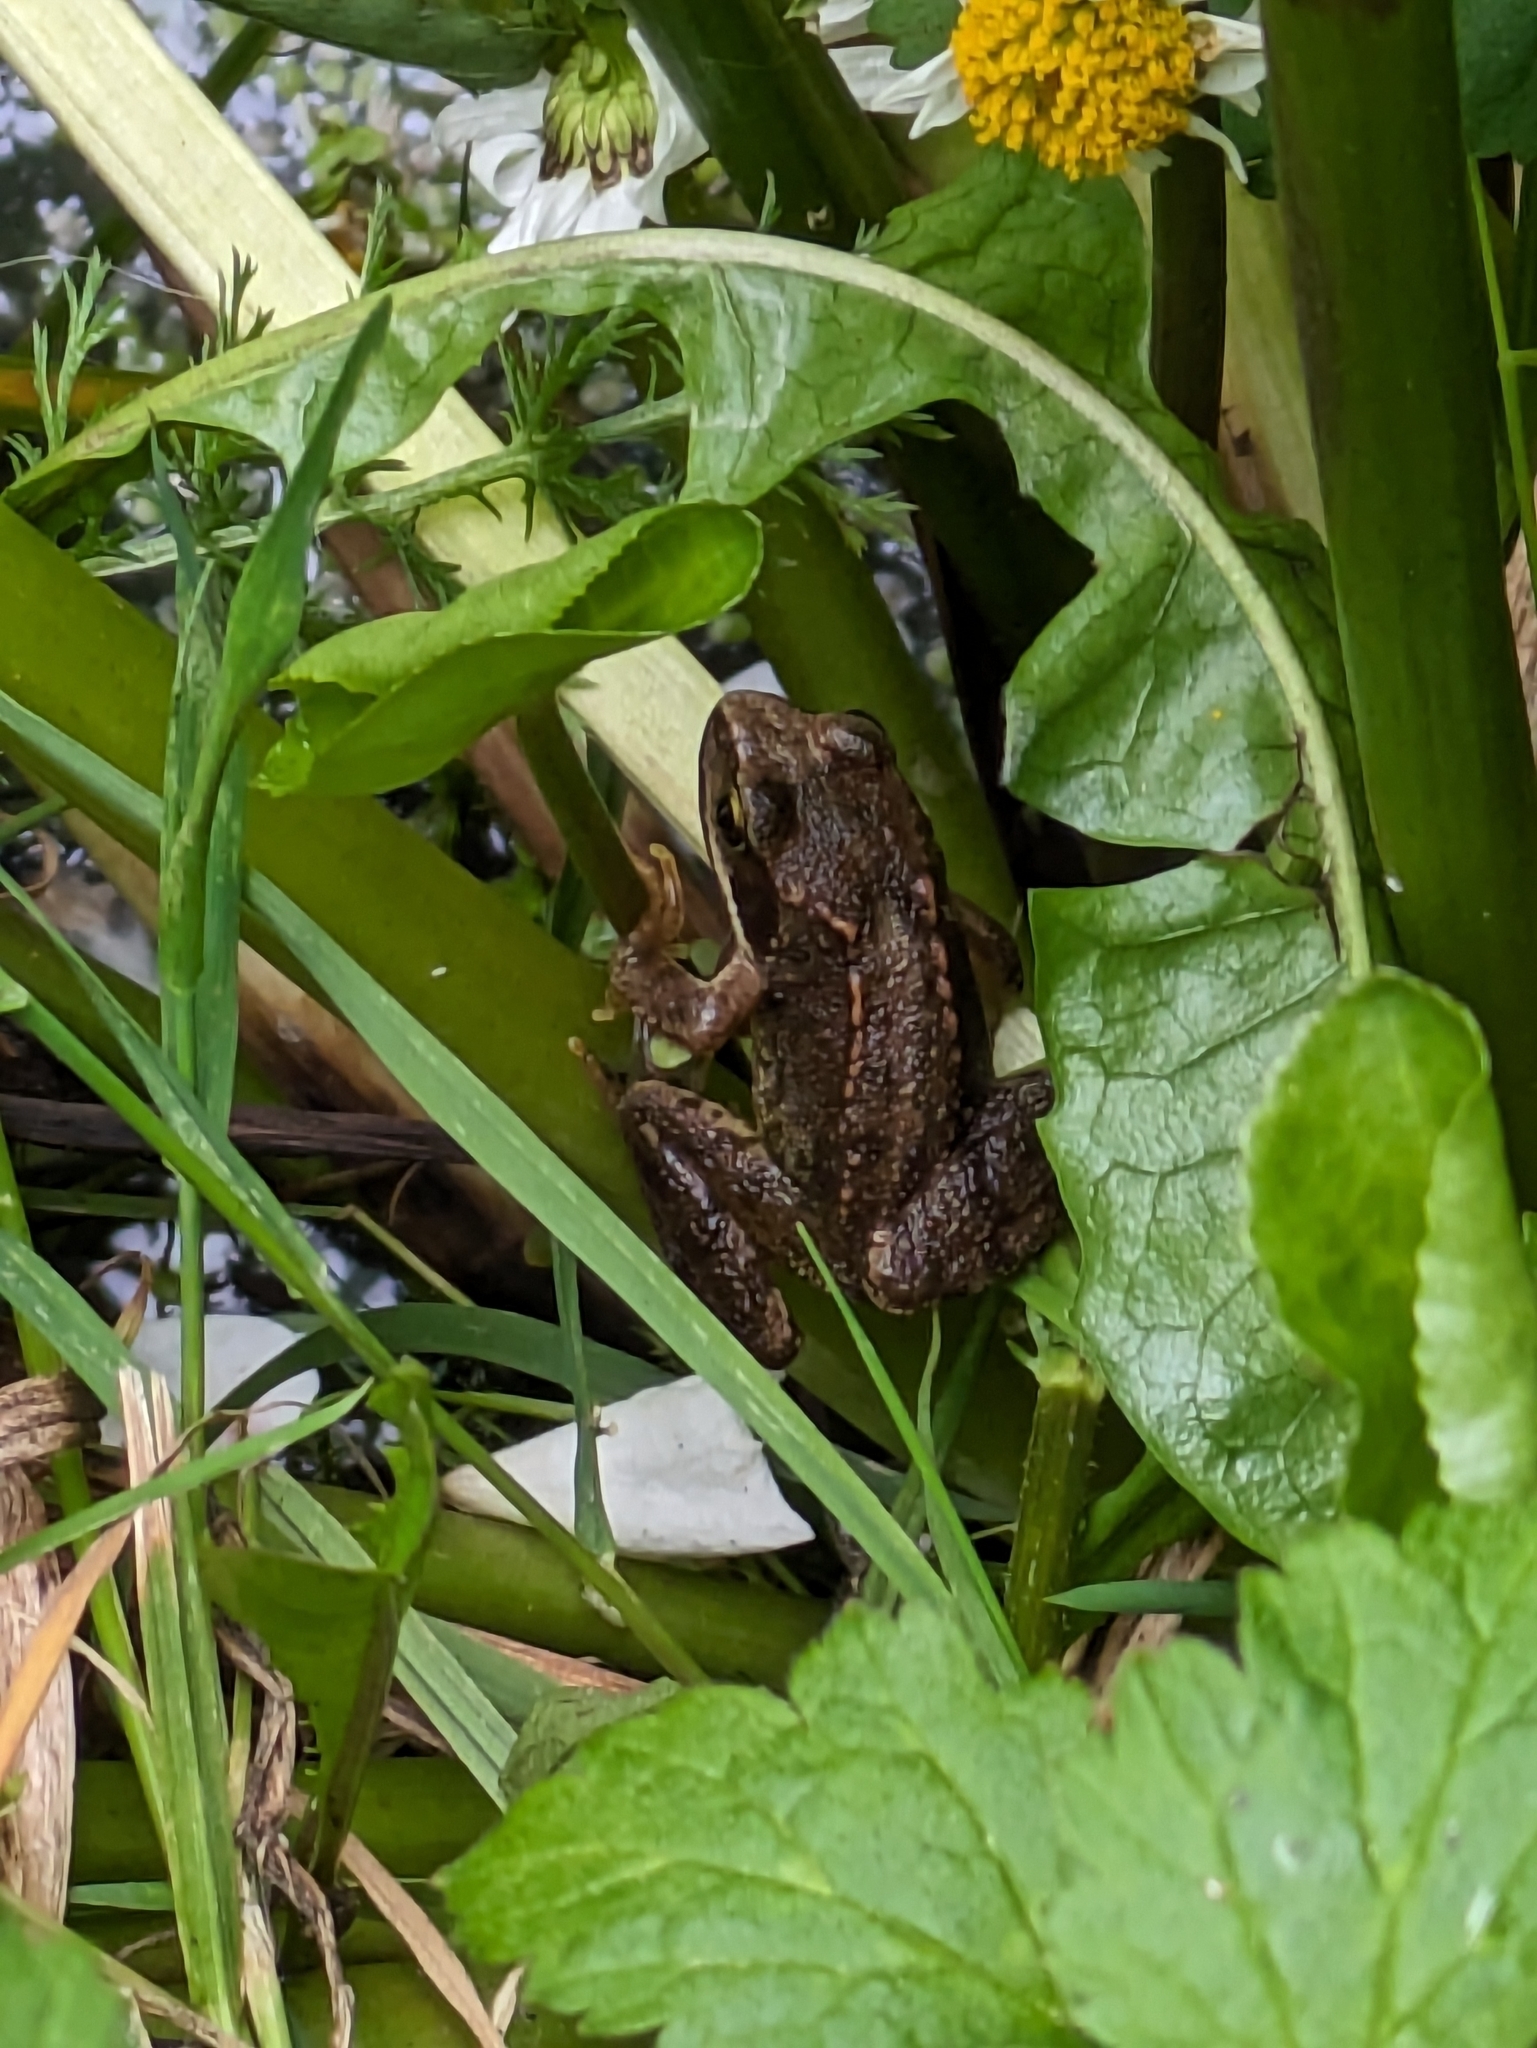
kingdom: Animalia
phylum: Chordata
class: Amphibia
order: Anura
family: Ranidae
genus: Rana
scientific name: Rana temporaria
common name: Common frog
